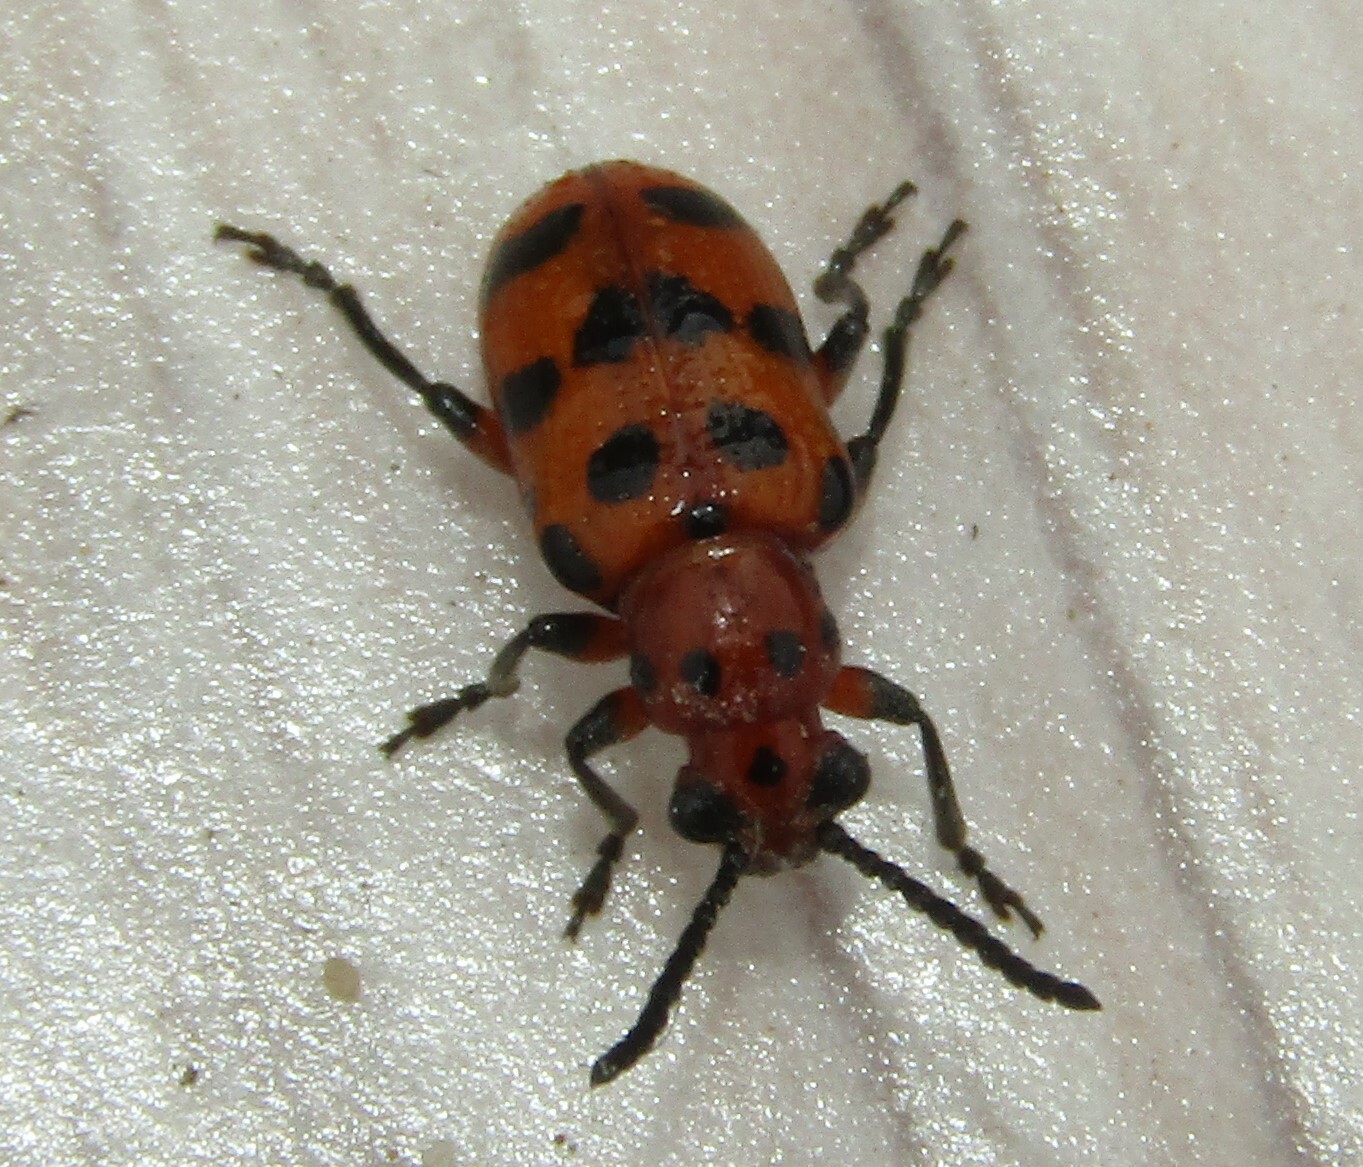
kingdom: Animalia
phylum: Arthropoda
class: Insecta
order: Coleoptera
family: Chrysomelidae
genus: Crioceris
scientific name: Crioceris quatuordecimpunctata
